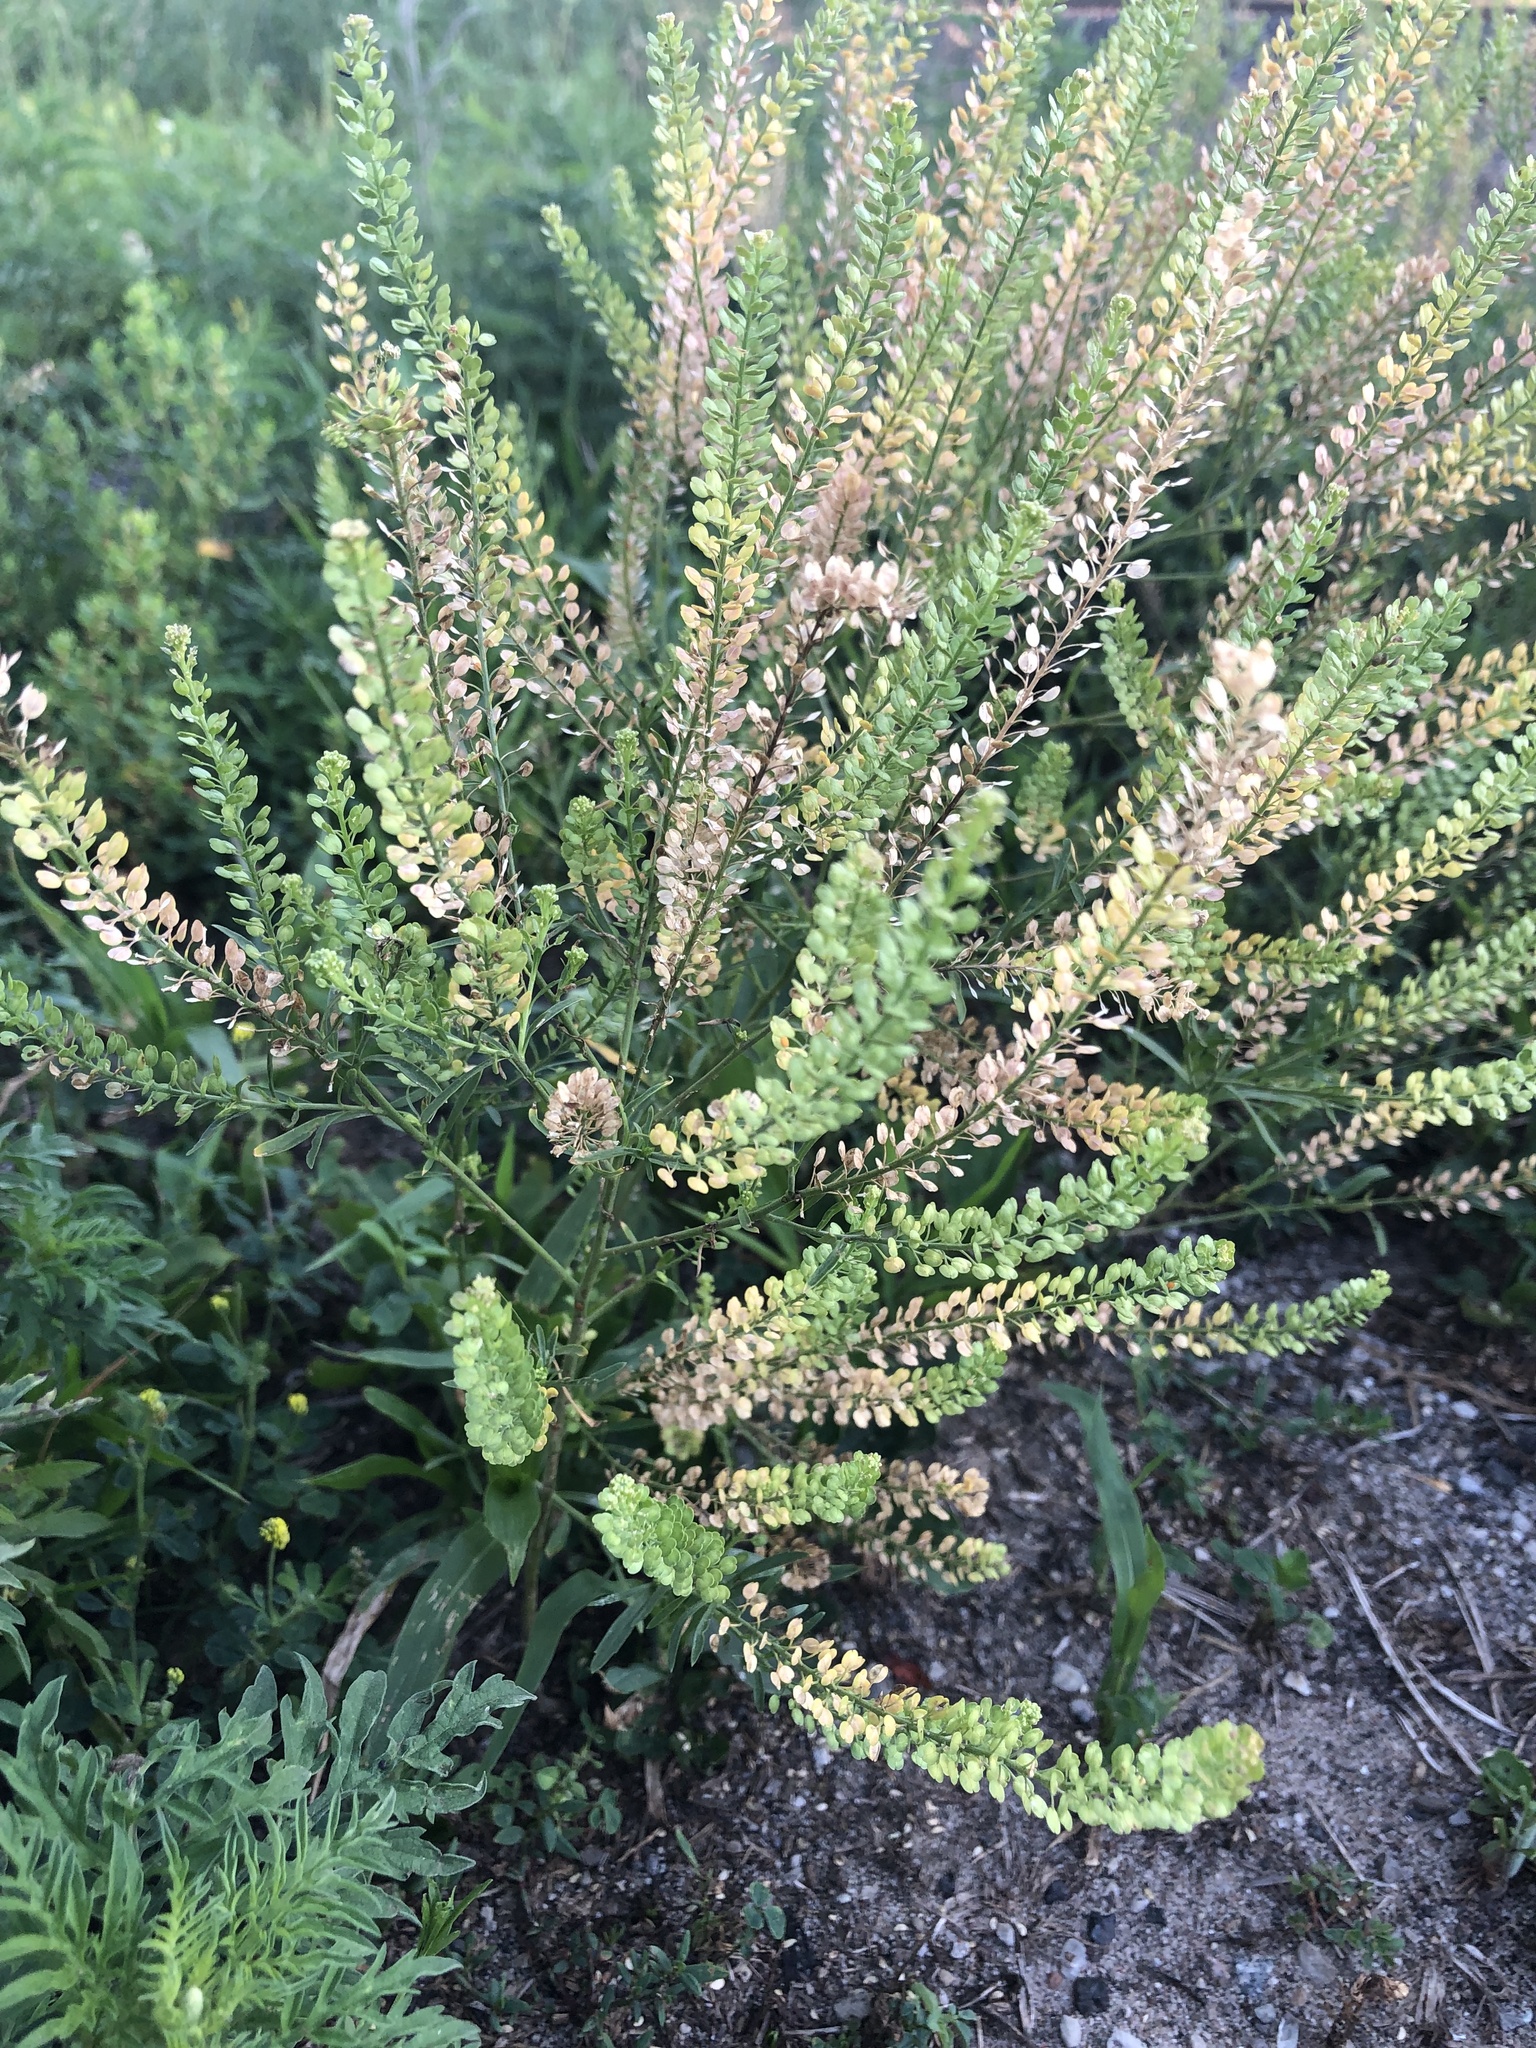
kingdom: Plantae
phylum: Tracheophyta
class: Magnoliopsida
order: Brassicales
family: Brassicaceae
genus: Lepidium
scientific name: Lepidium densiflorum
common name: Miner's pepperwort
